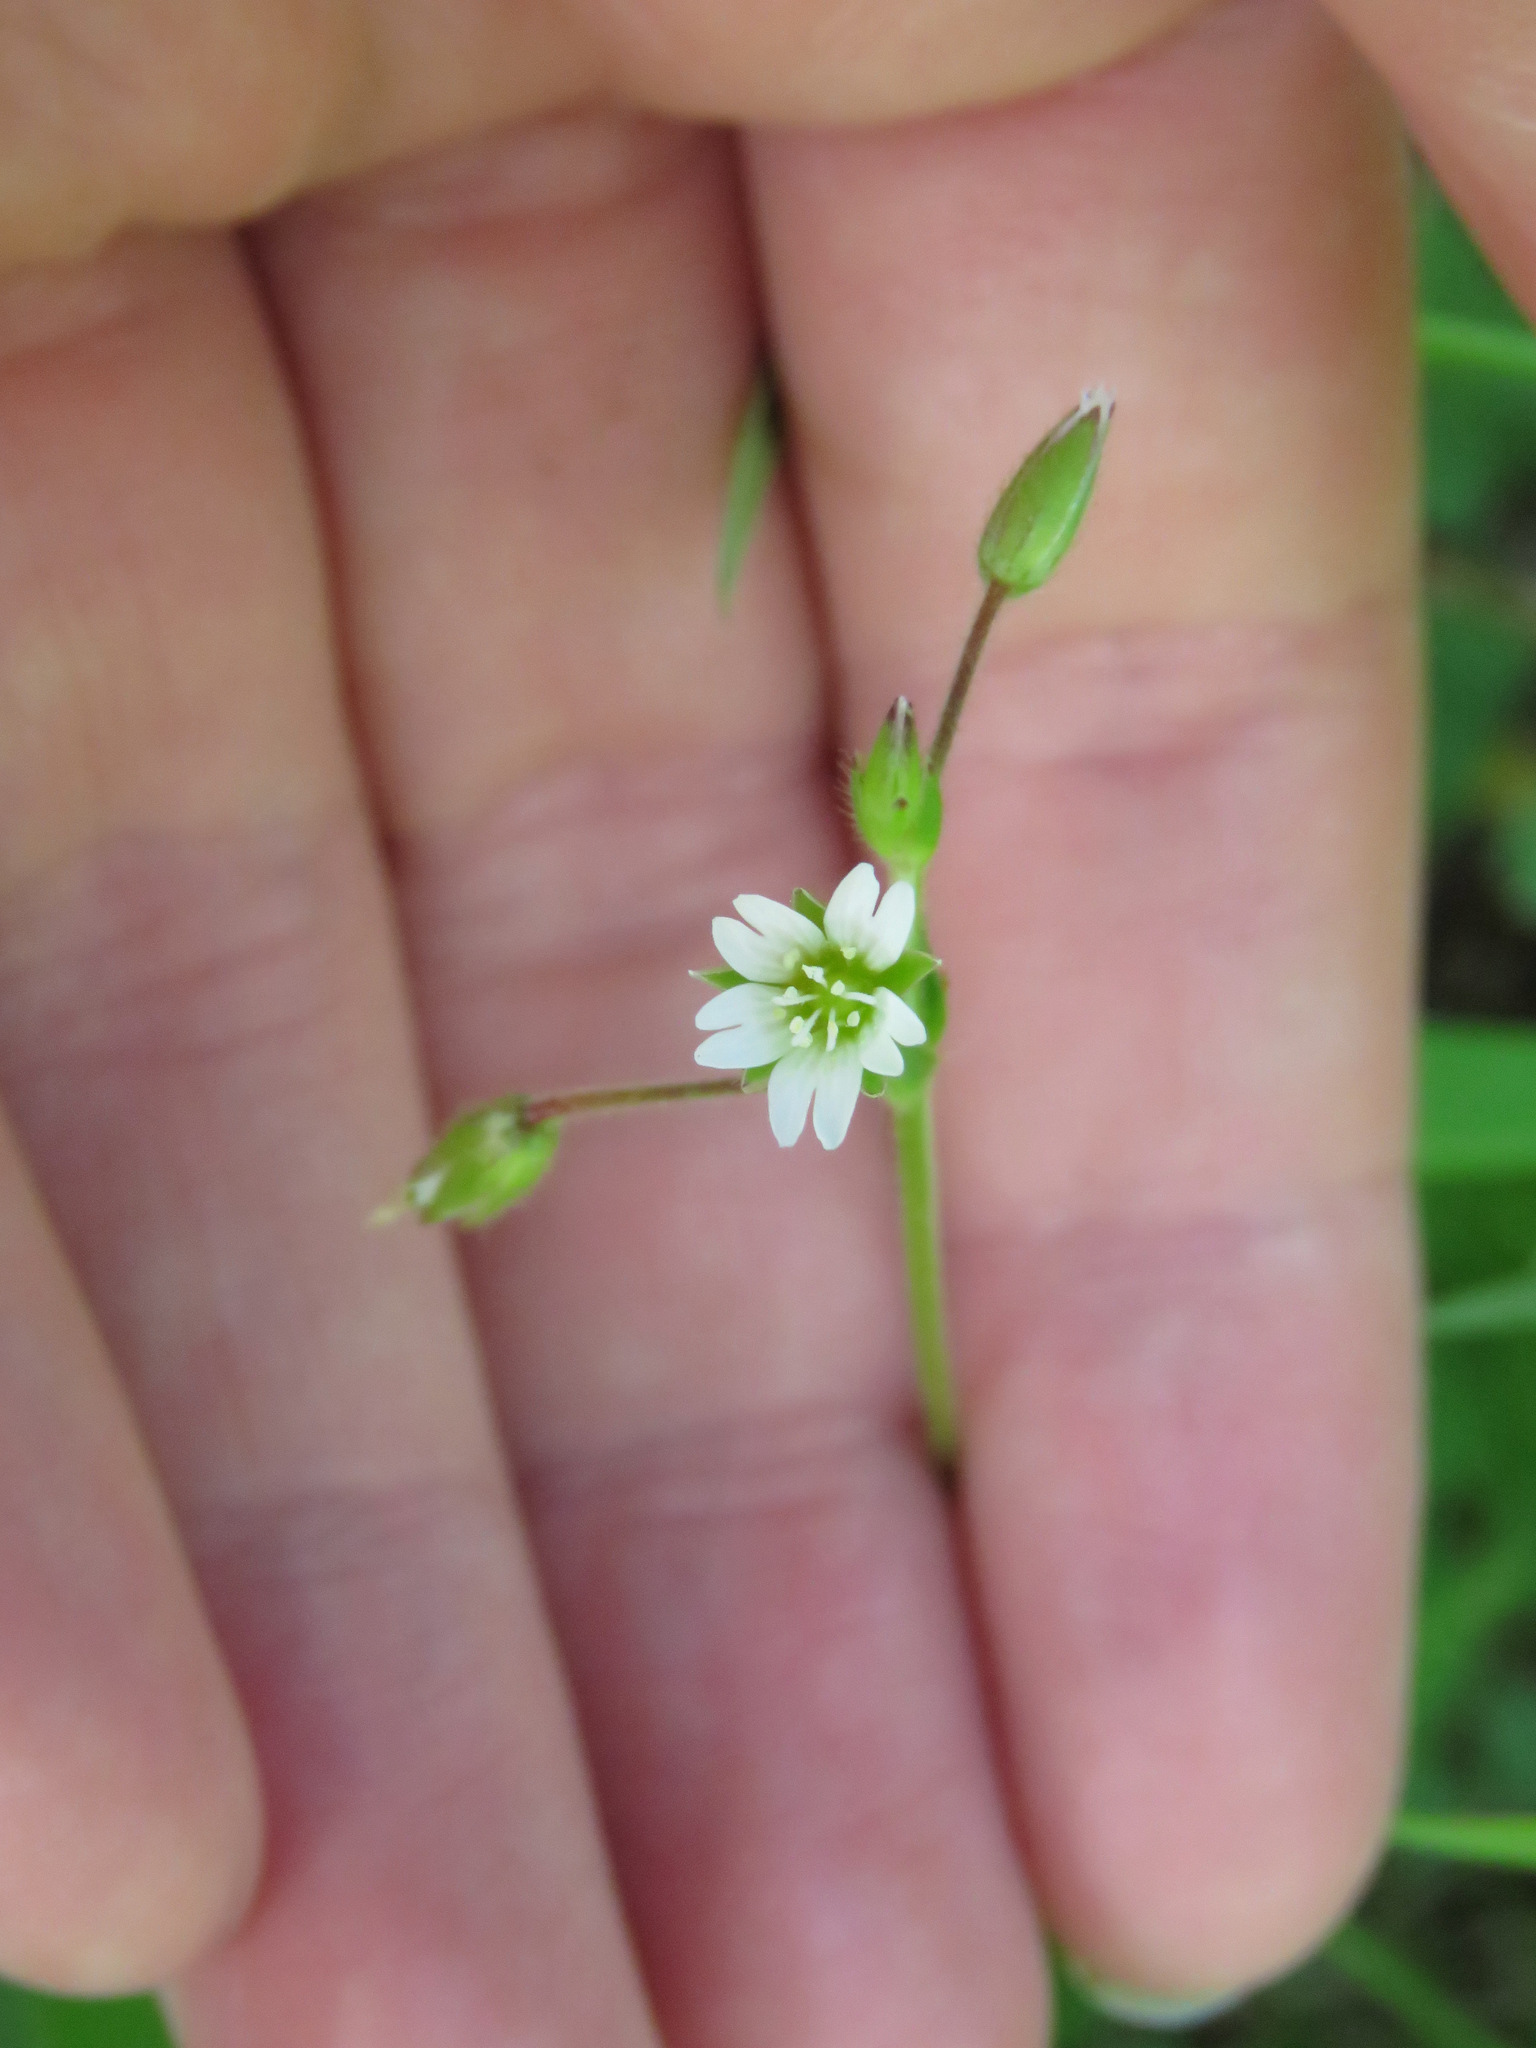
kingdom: Plantae
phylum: Tracheophyta
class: Magnoliopsida
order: Caryophyllales
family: Caryophyllaceae
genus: Cerastium
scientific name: Cerastium fontanum
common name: Common mouse-ear
